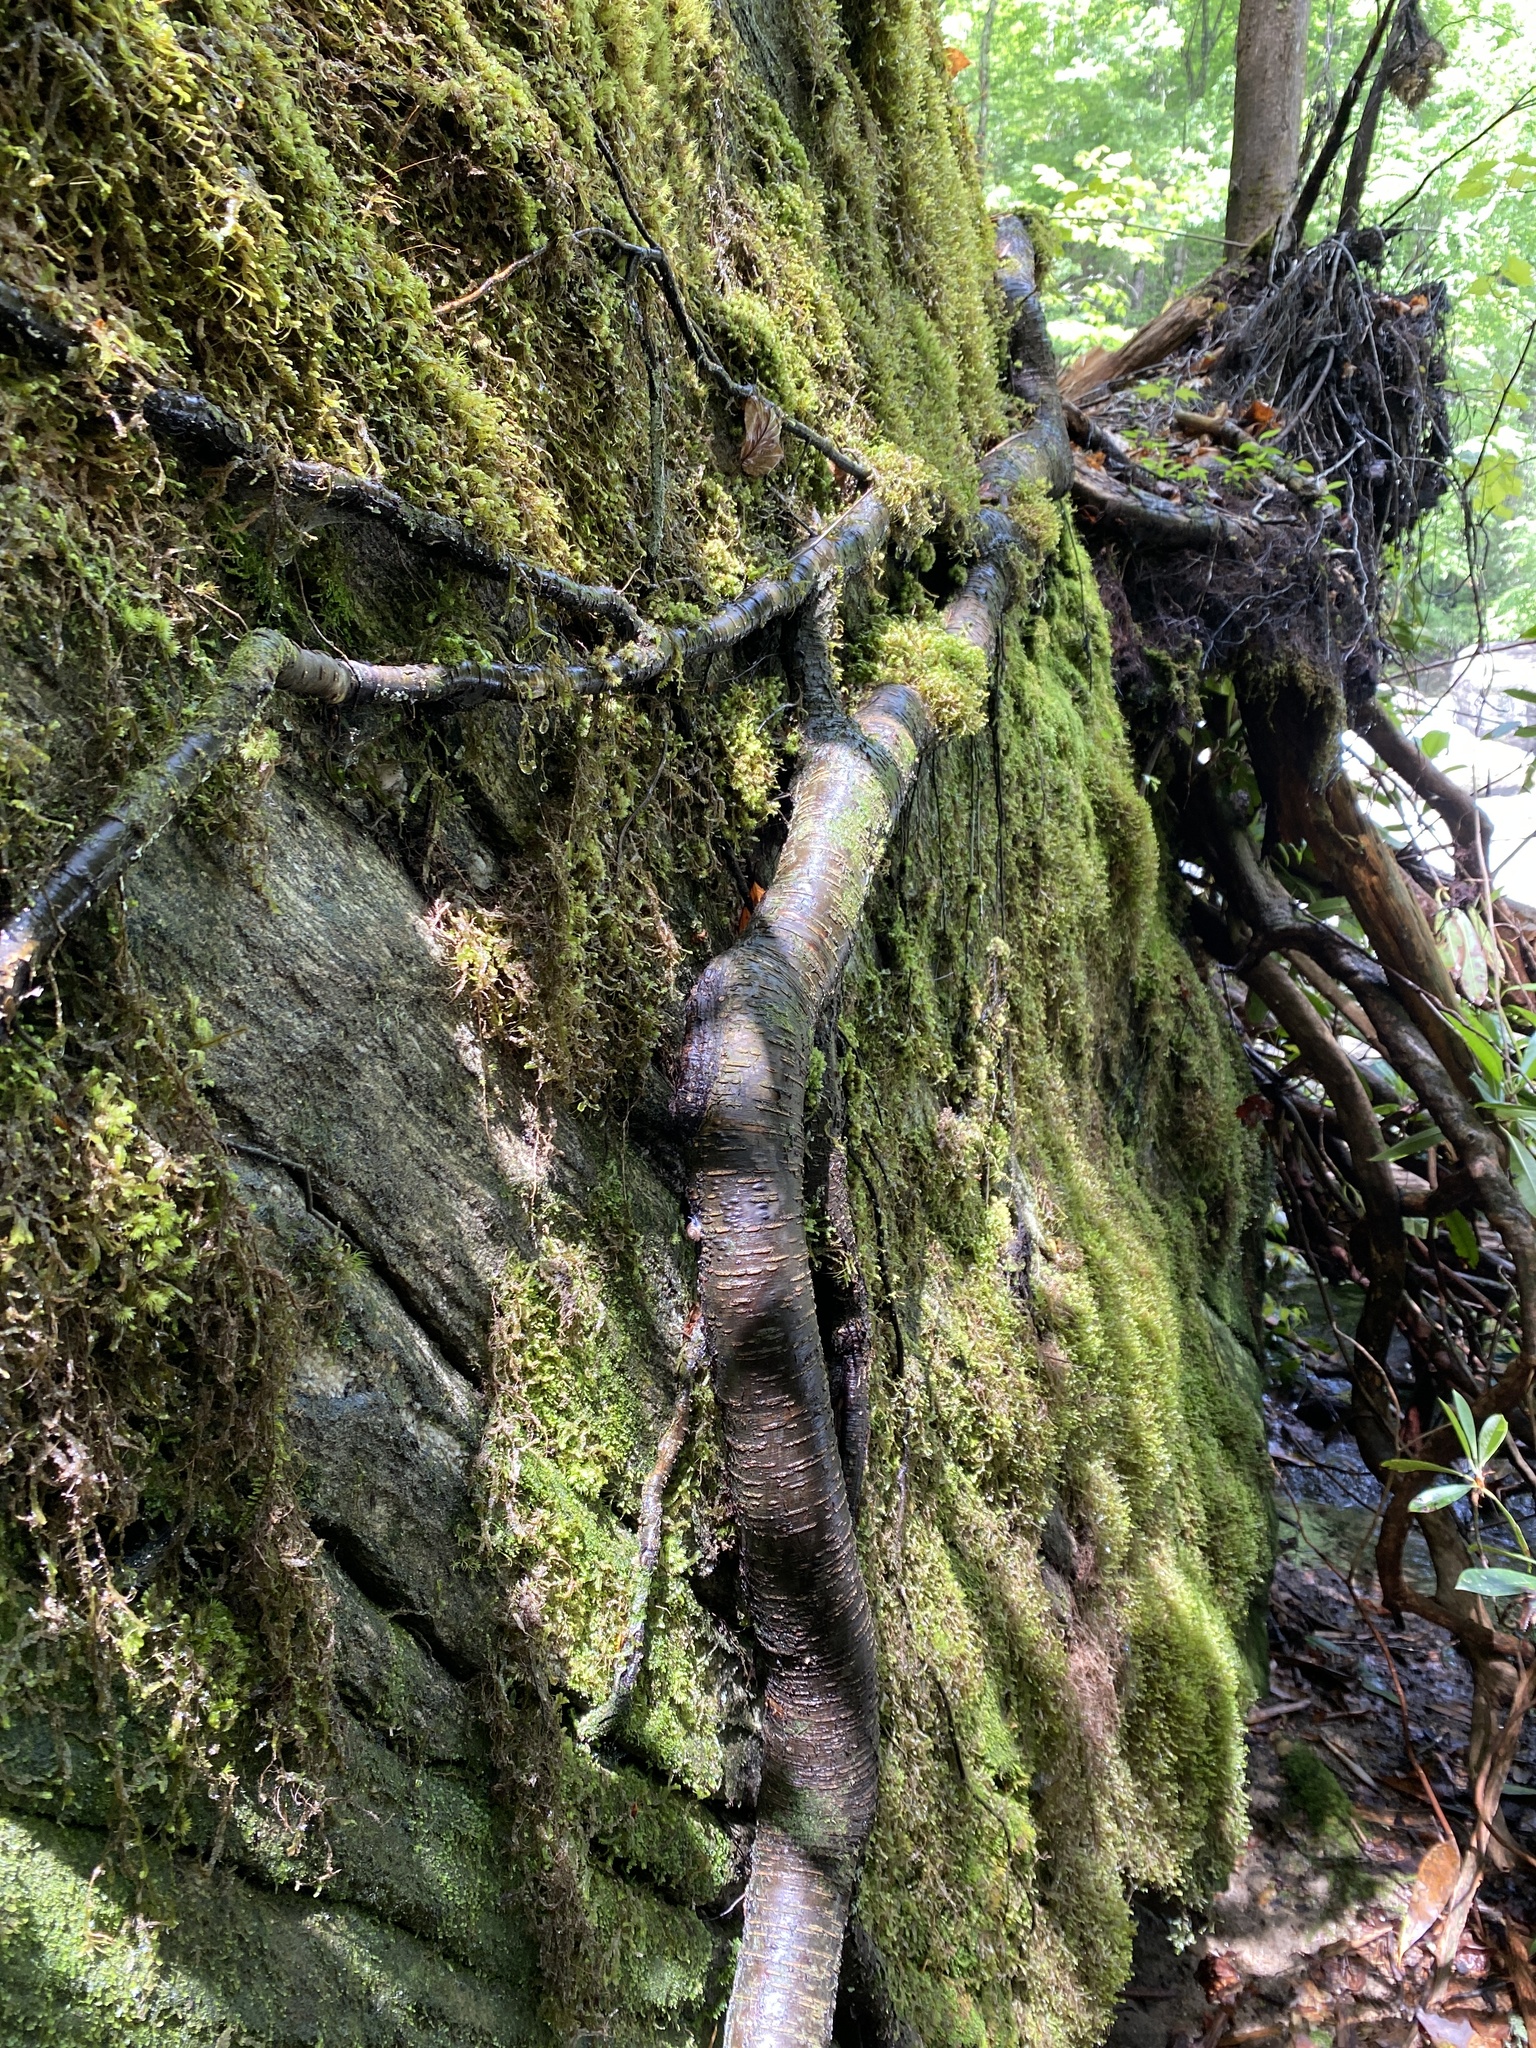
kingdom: Plantae
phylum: Tracheophyta
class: Magnoliopsida
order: Fagales
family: Betulaceae
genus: Betula
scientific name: Betula lenta
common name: Black birch
